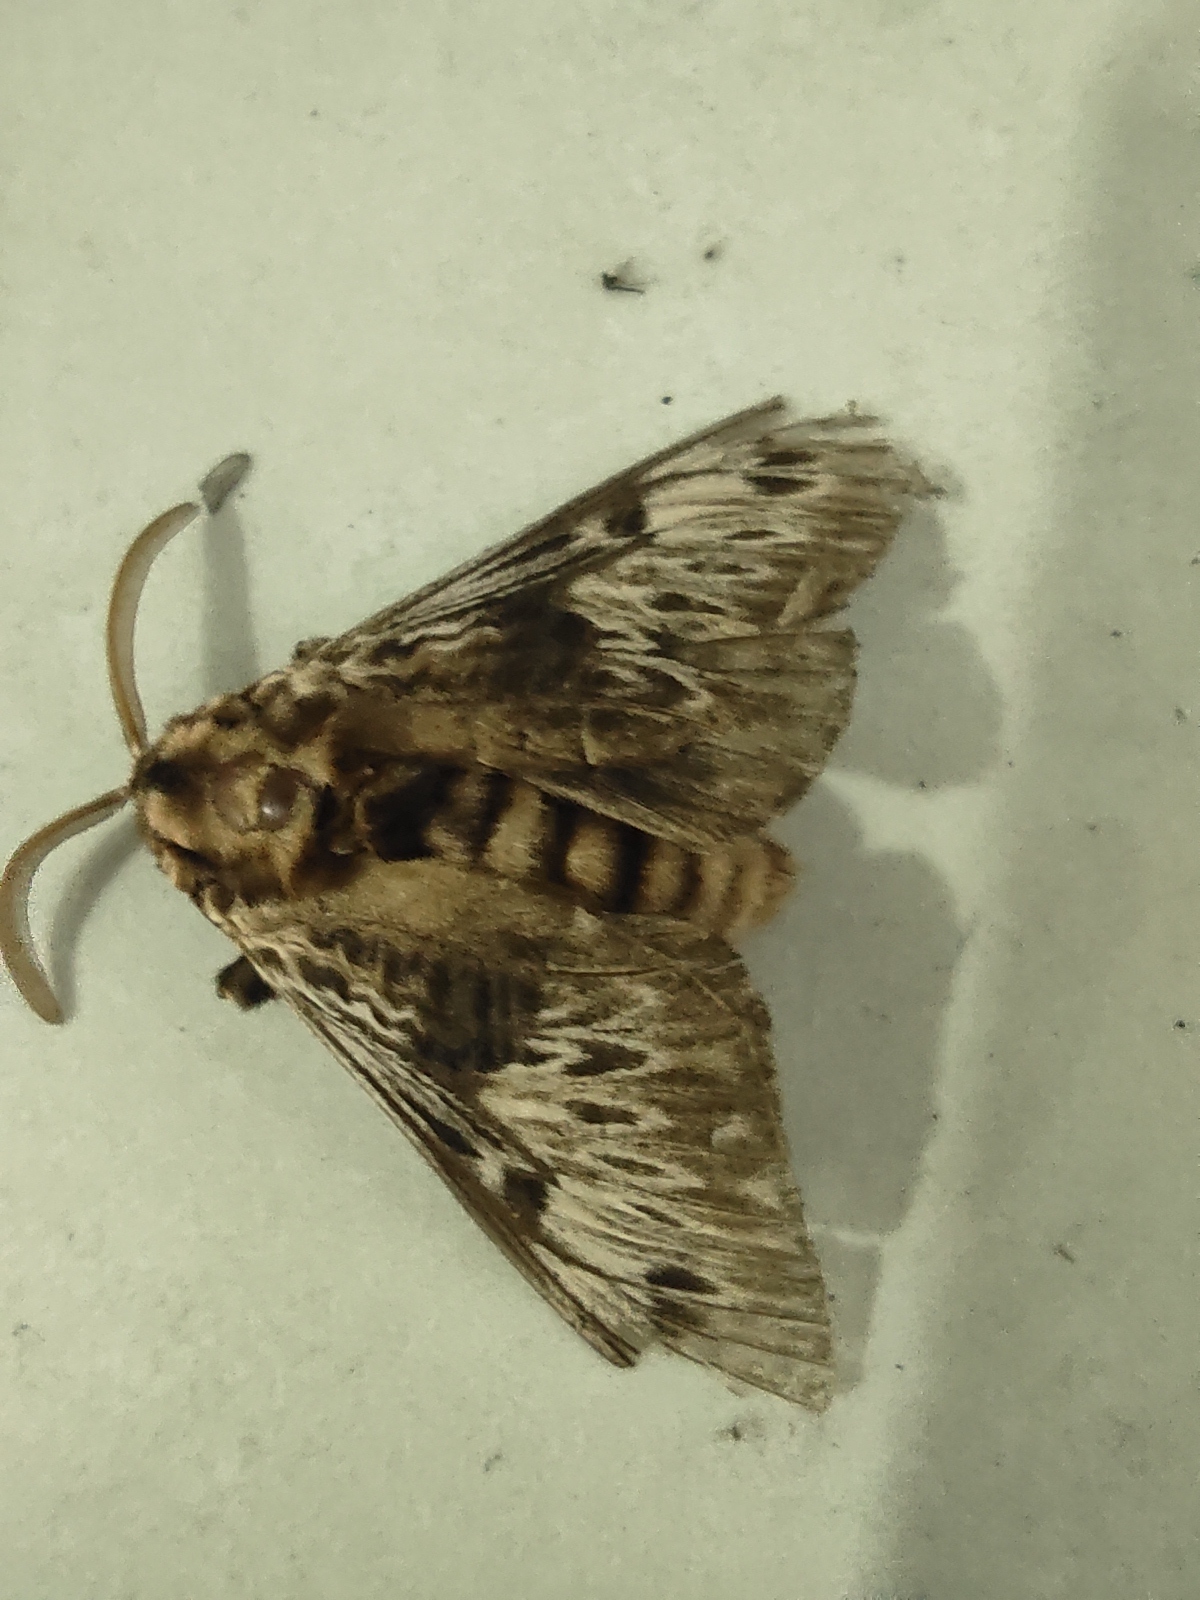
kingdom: Animalia
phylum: Arthropoda
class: Insecta
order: Lepidoptera
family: Megalopygidae
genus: Podalia
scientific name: Podalia fuscescens
